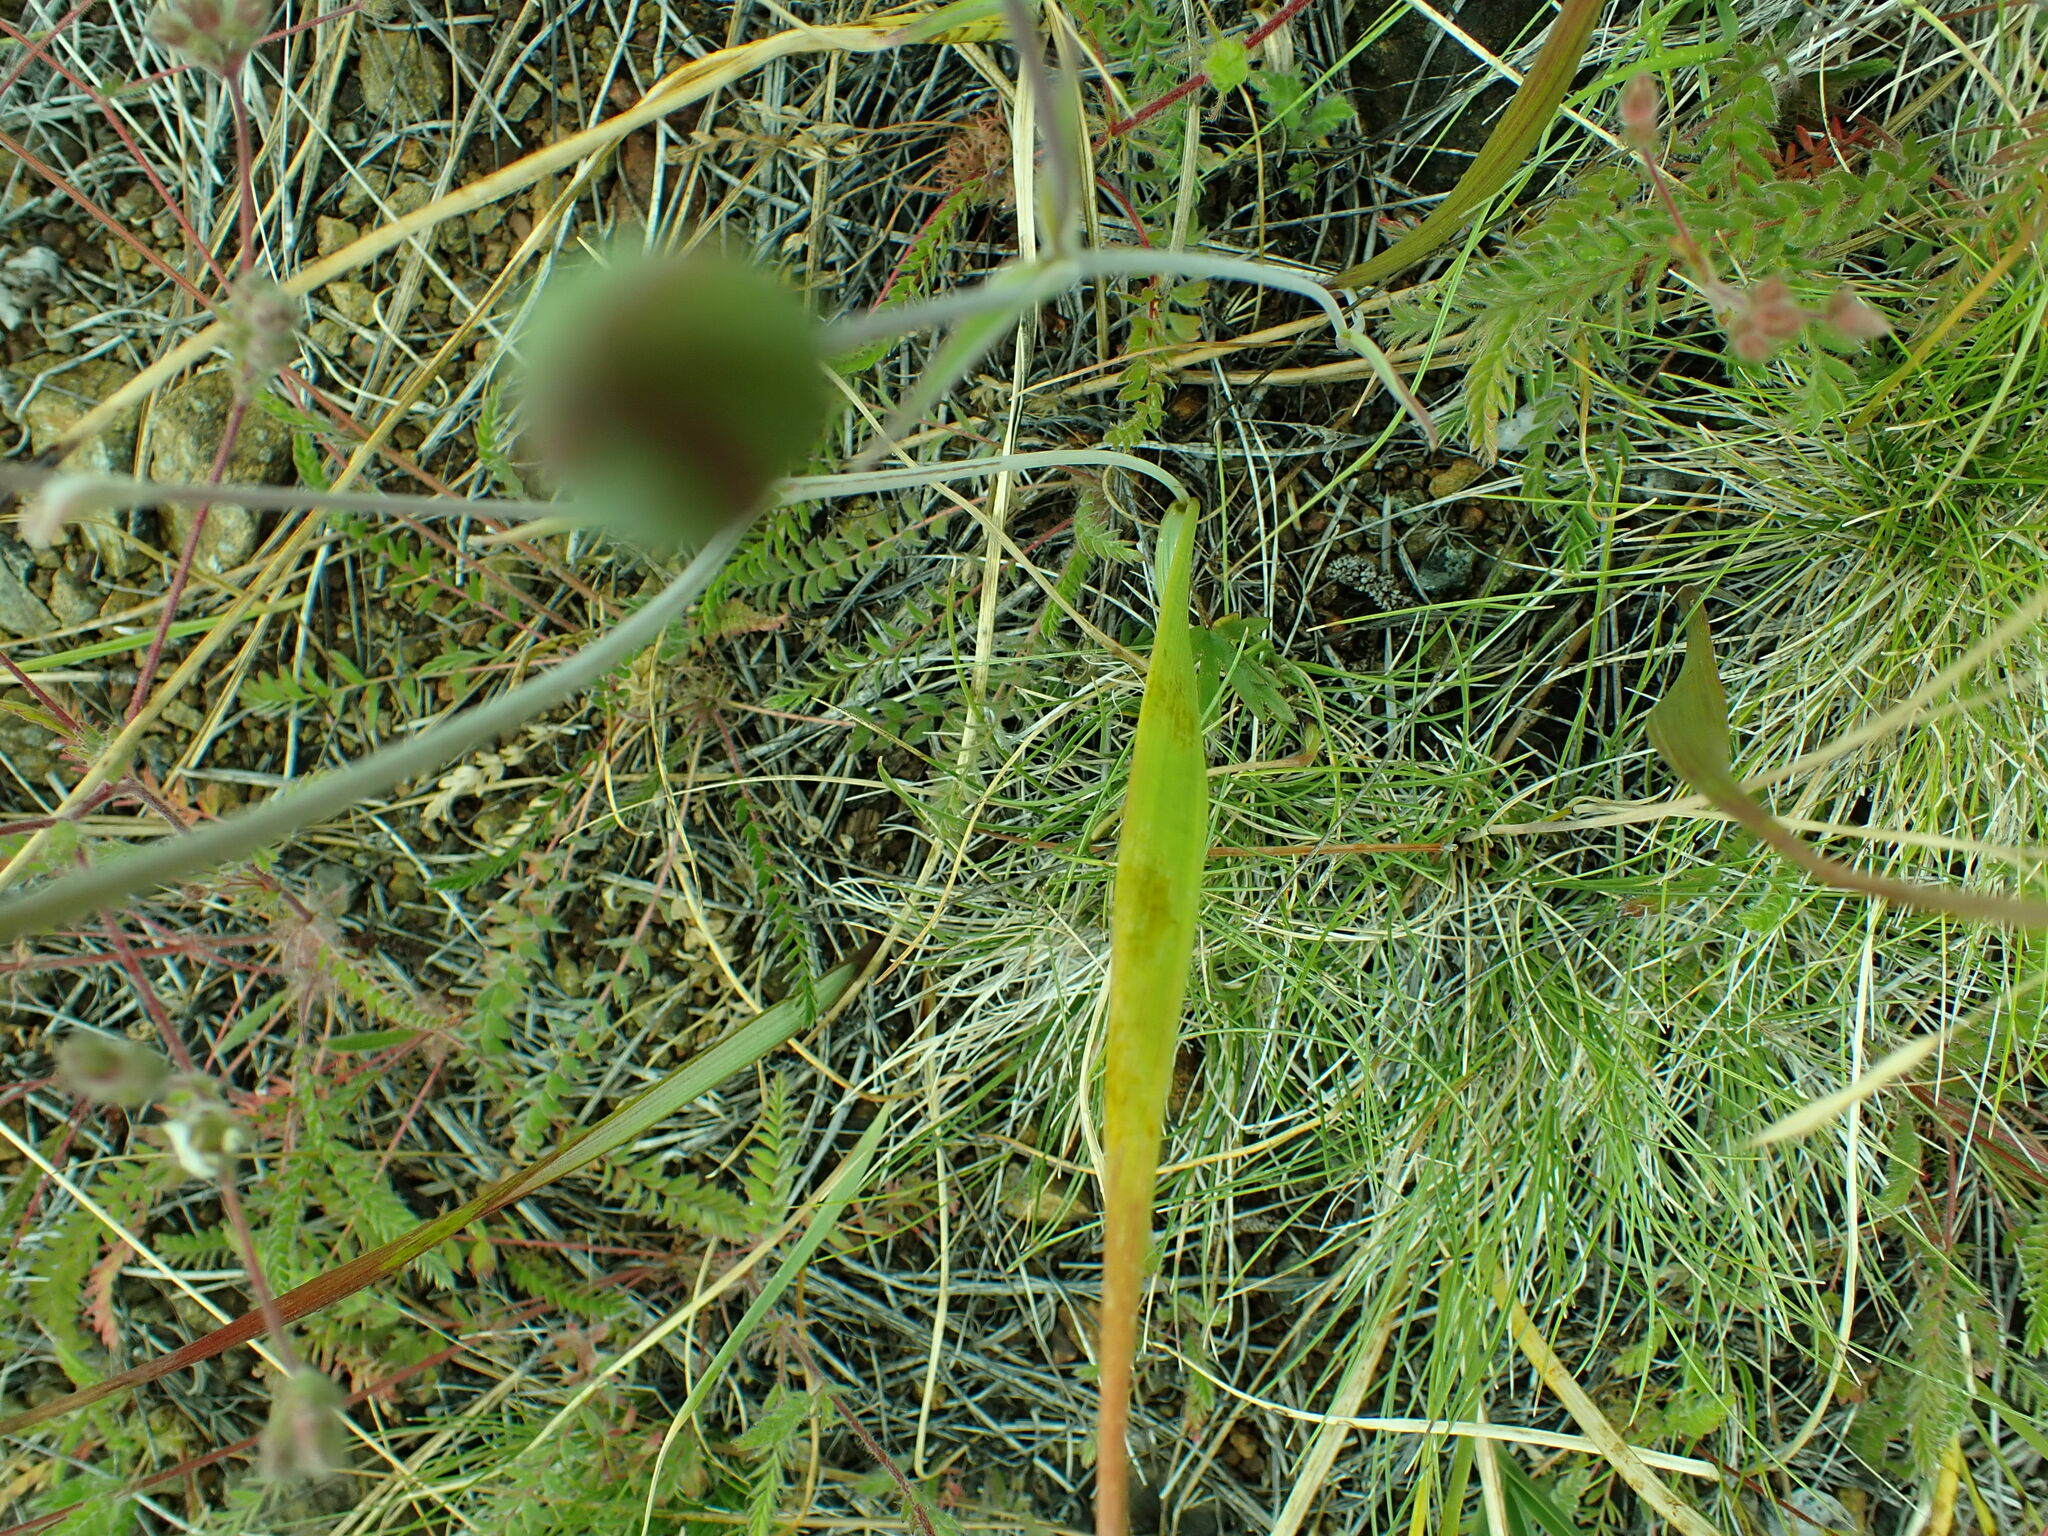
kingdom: Plantae
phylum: Tracheophyta
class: Liliopsida
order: Liliales
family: Liliaceae
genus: Calochortus
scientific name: Calochortus howellii
